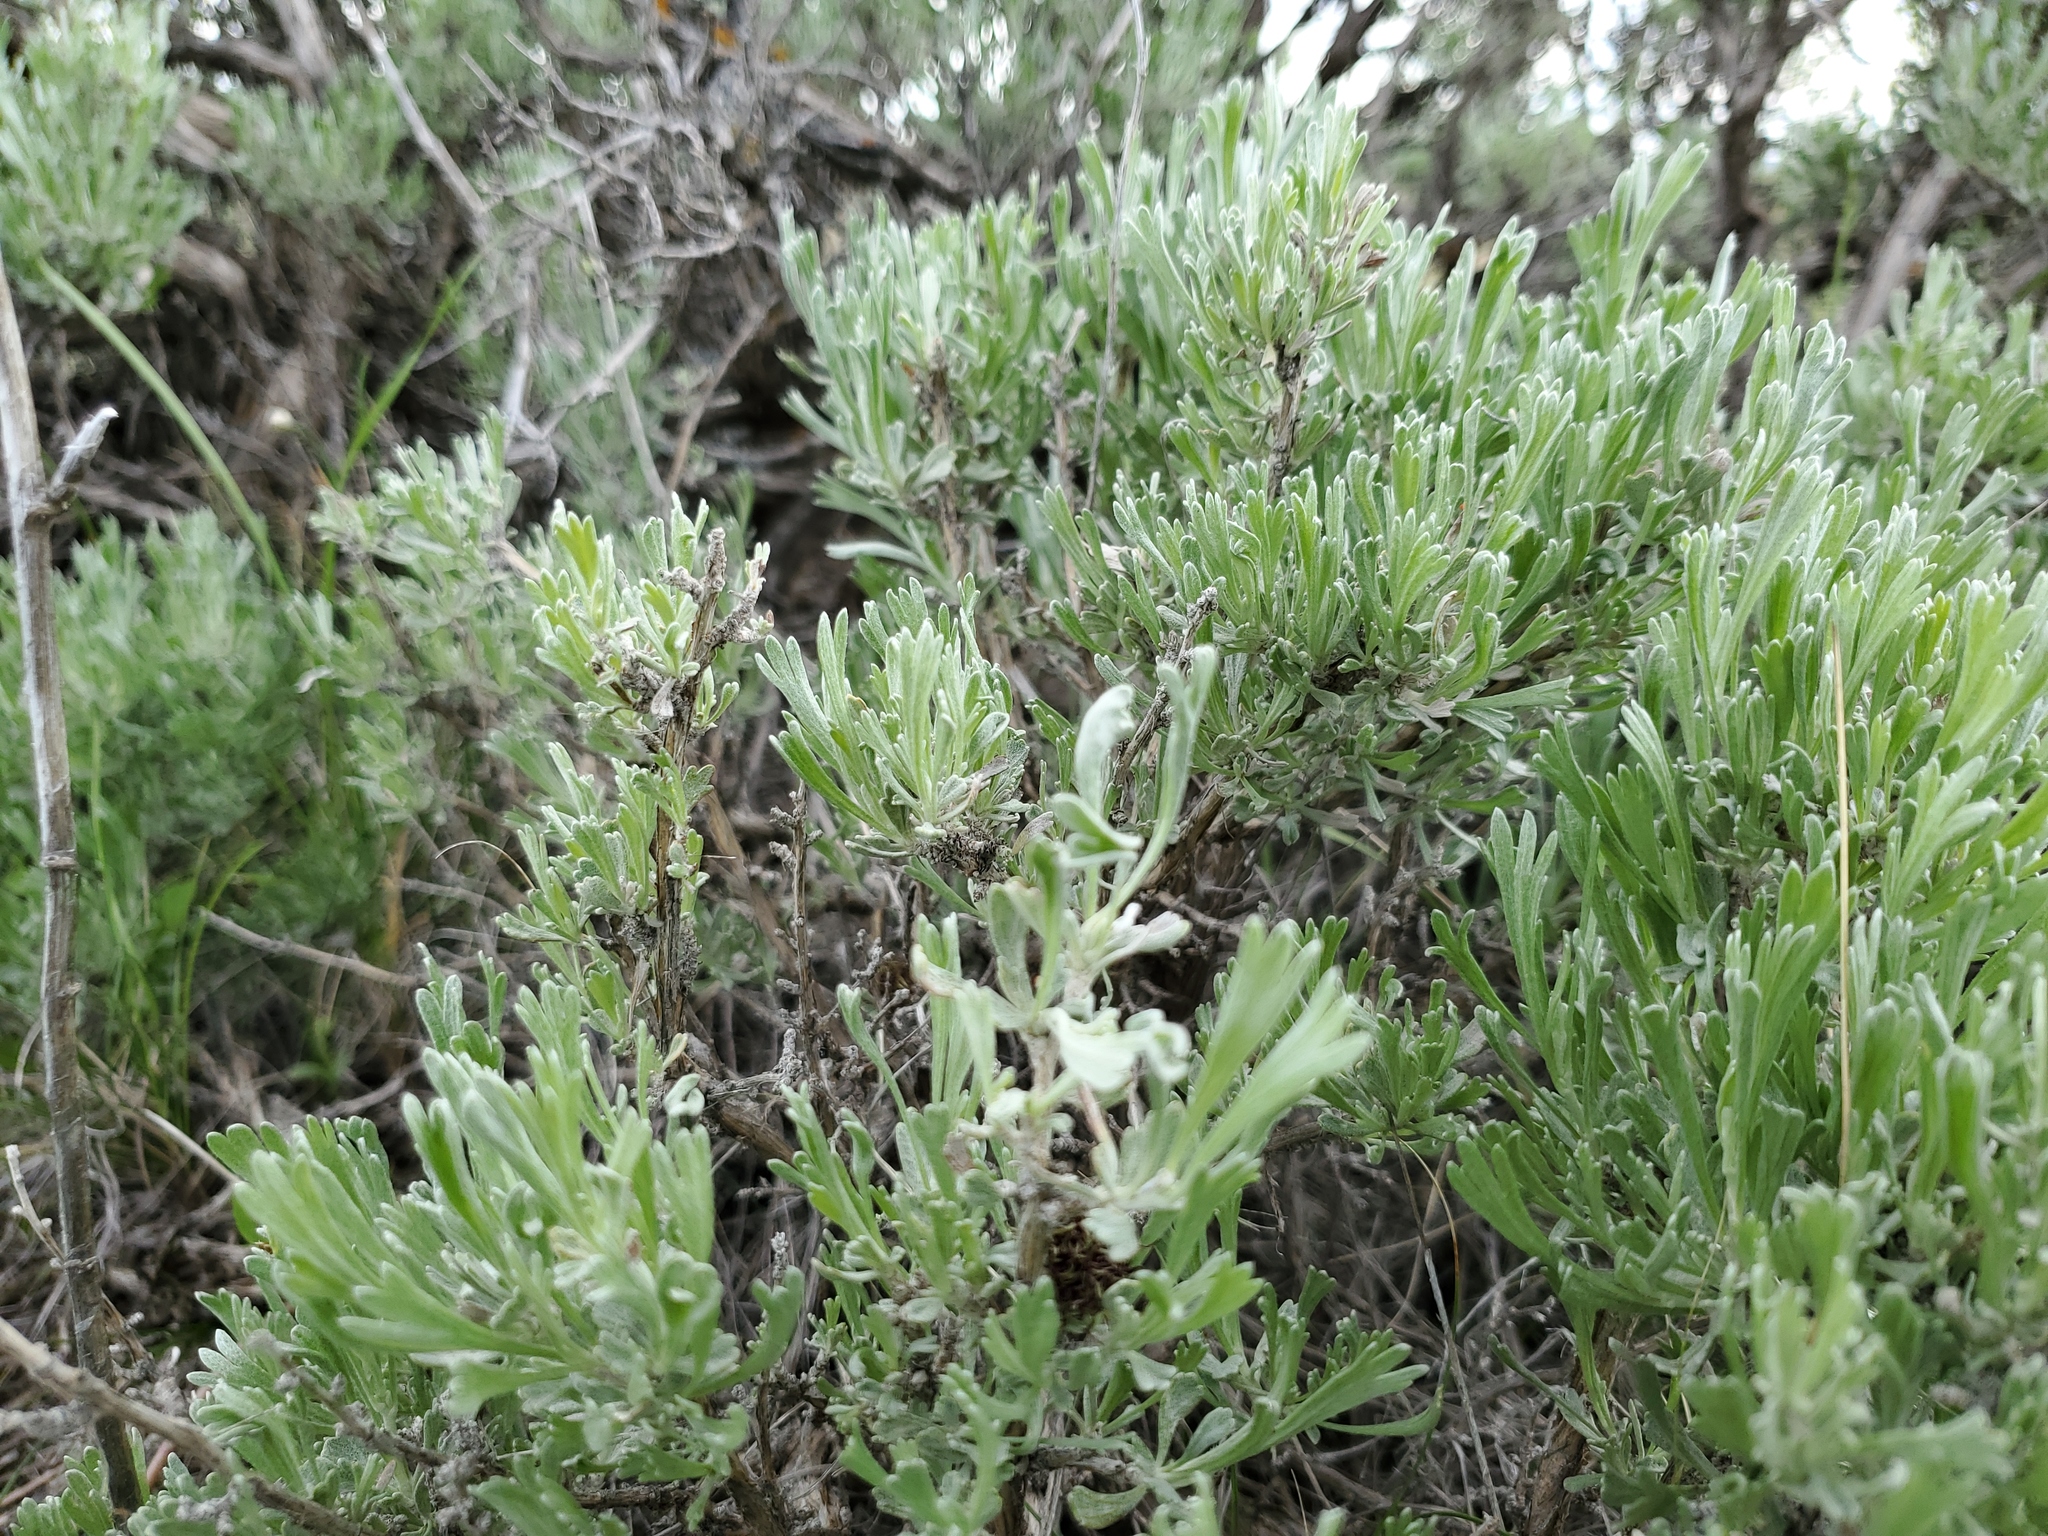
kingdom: Plantae
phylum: Tracheophyta
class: Magnoliopsida
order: Asterales
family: Asteraceae
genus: Artemisia
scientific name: Artemisia tridentata
